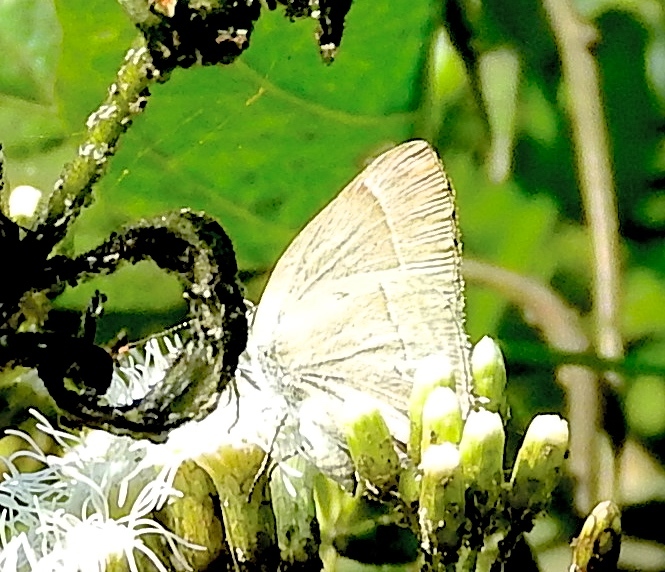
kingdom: Animalia
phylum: Arthropoda
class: Insecta
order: Lepidoptera
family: Lycaenidae
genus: Rekoa
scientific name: Rekoa
